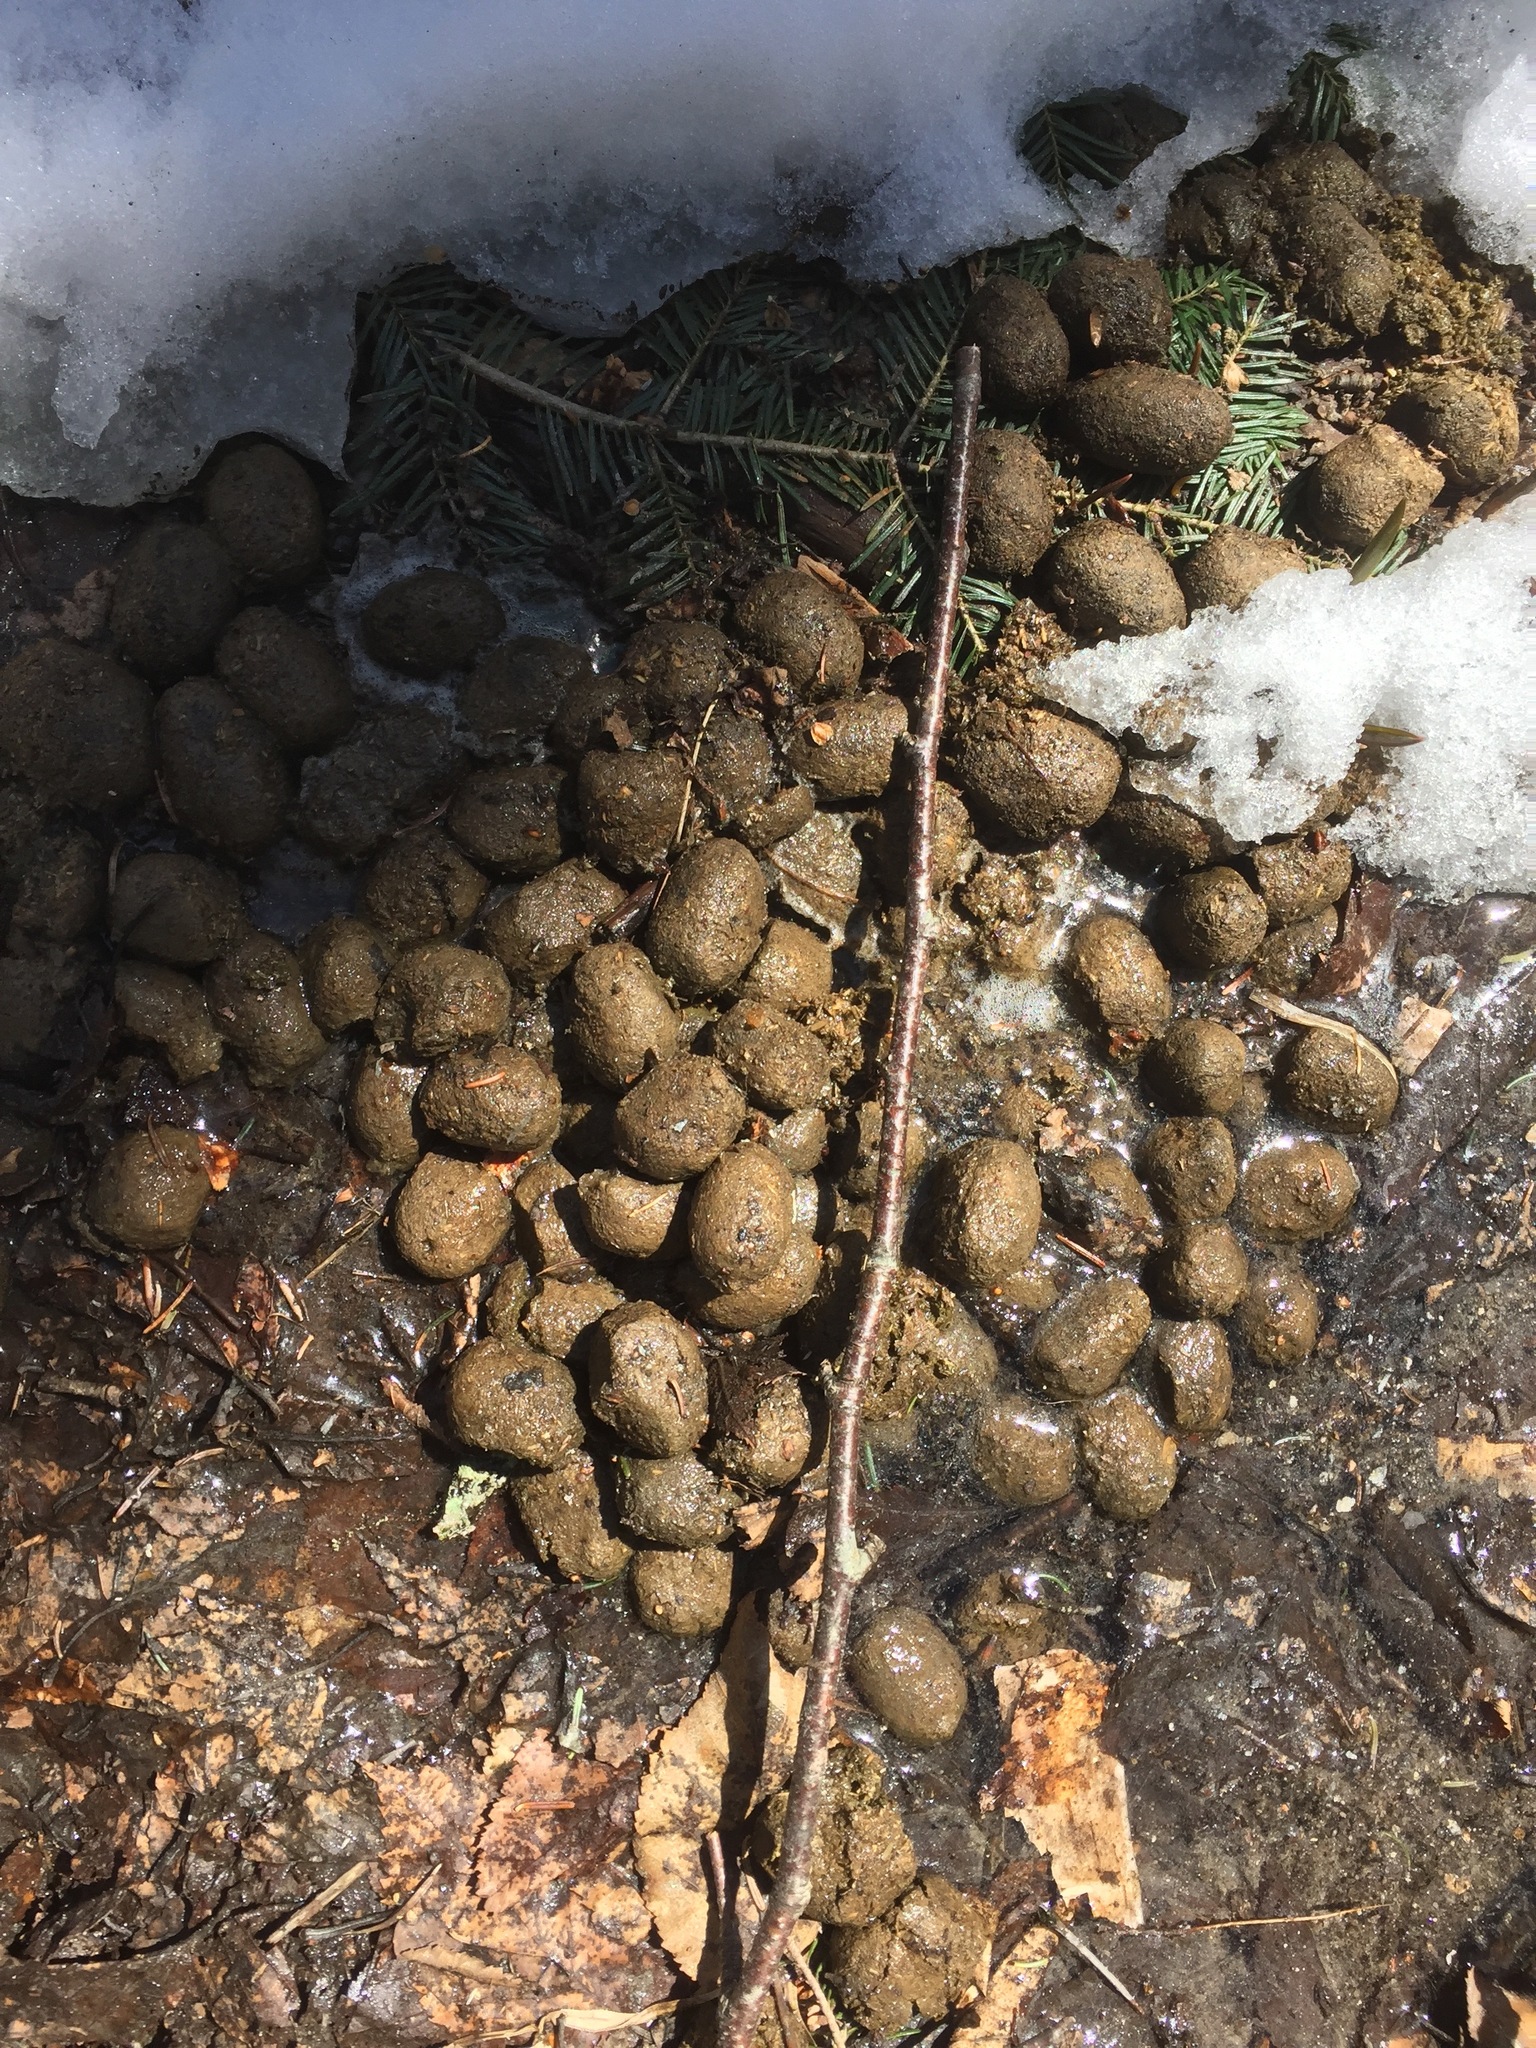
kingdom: Animalia
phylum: Chordata
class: Mammalia
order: Artiodactyla
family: Cervidae
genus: Alces
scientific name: Alces alces
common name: Moose
